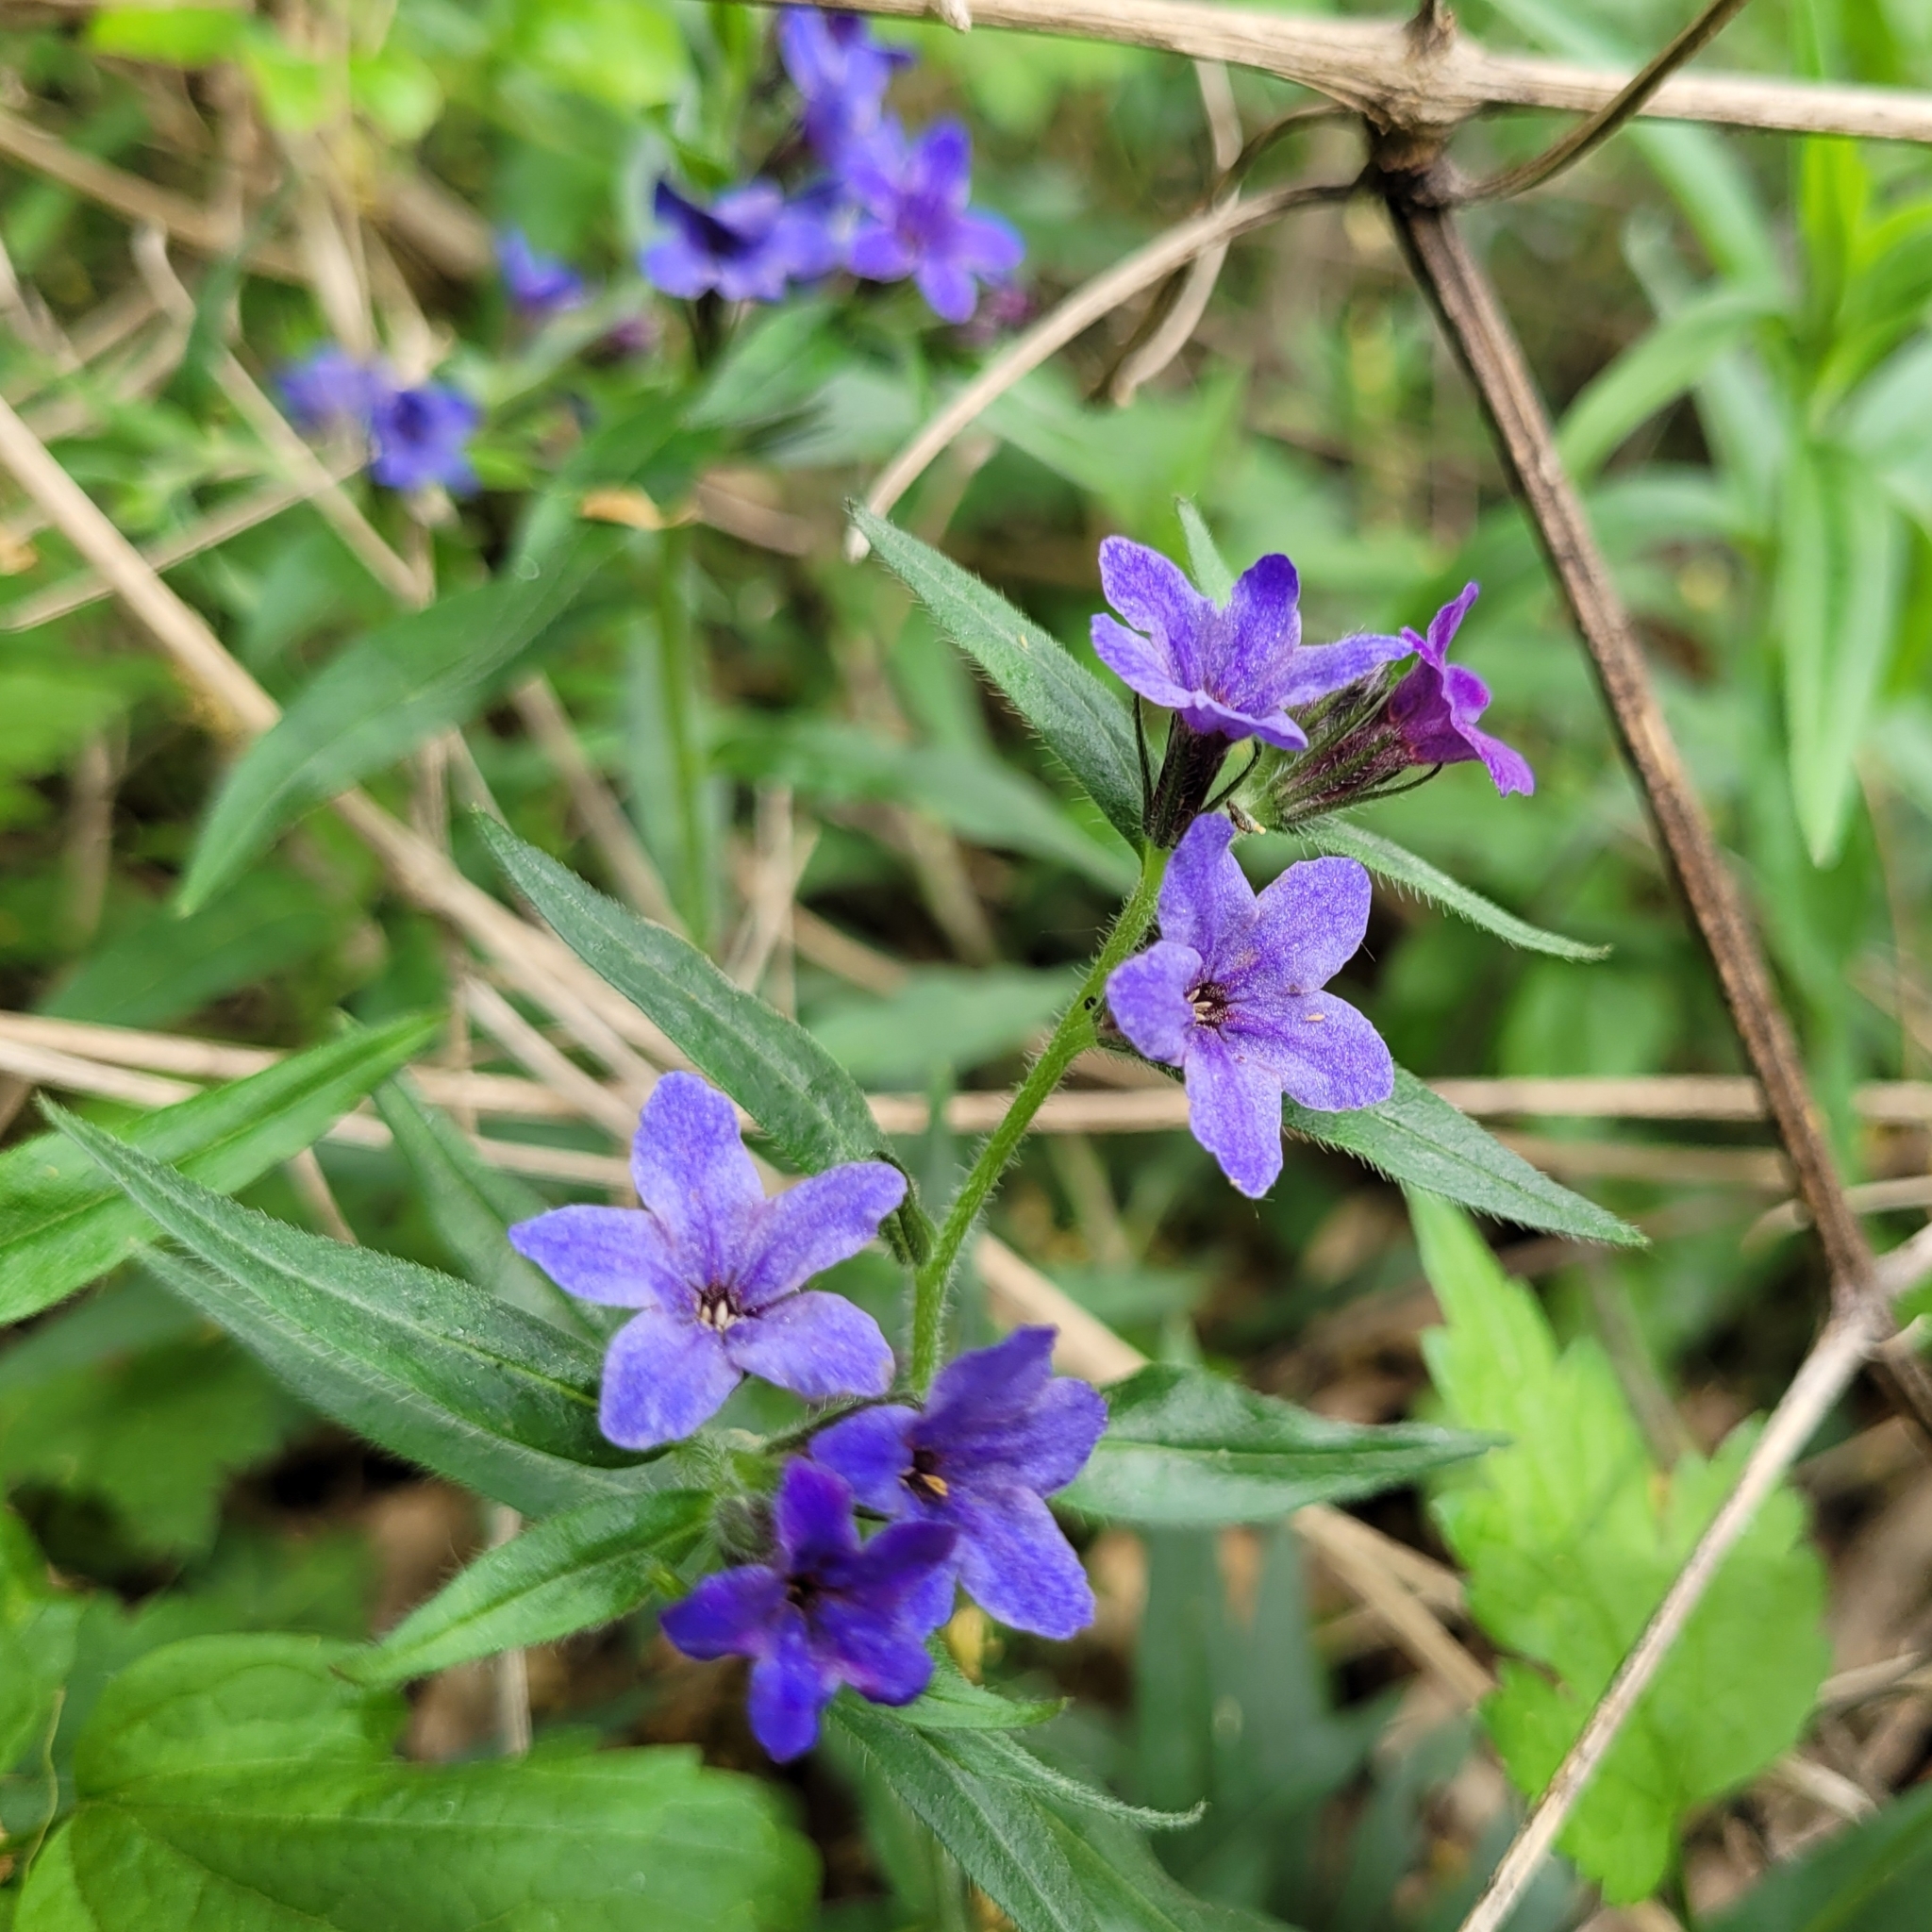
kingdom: Plantae
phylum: Tracheophyta
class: Magnoliopsida
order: Boraginales
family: Boraginaceae
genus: Aegonychon
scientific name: Aegonychon purpurocaeruleum
